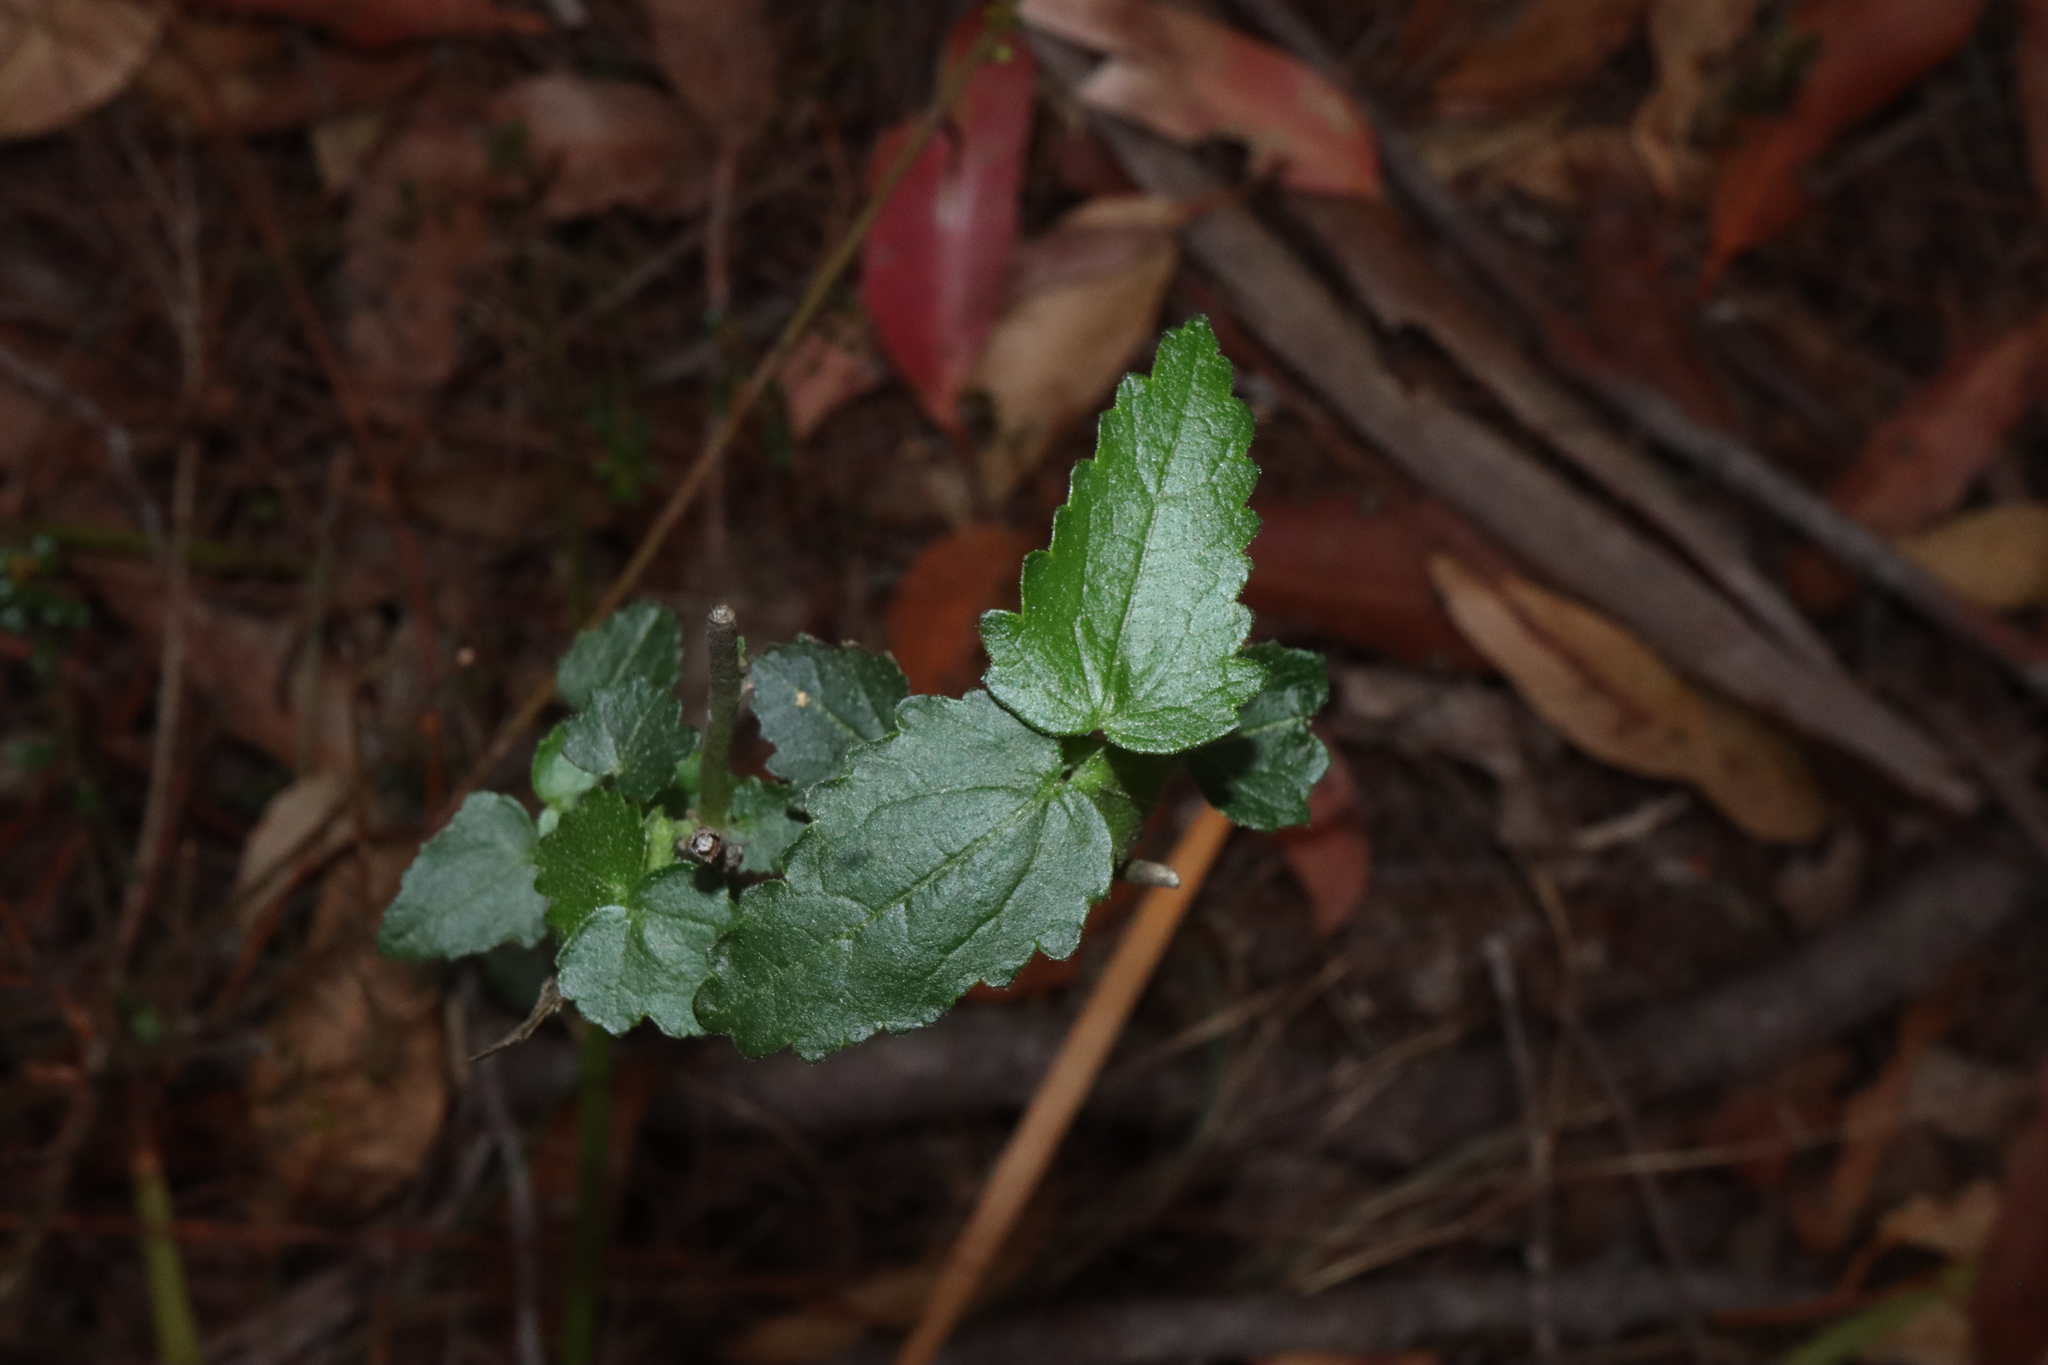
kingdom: Plantae
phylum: Tracheophyta
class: Magnoliopsida
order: Malvales
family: Malvaceae
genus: Pavonia
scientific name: Pavonia hastata
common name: Spearleaf swampmallow
